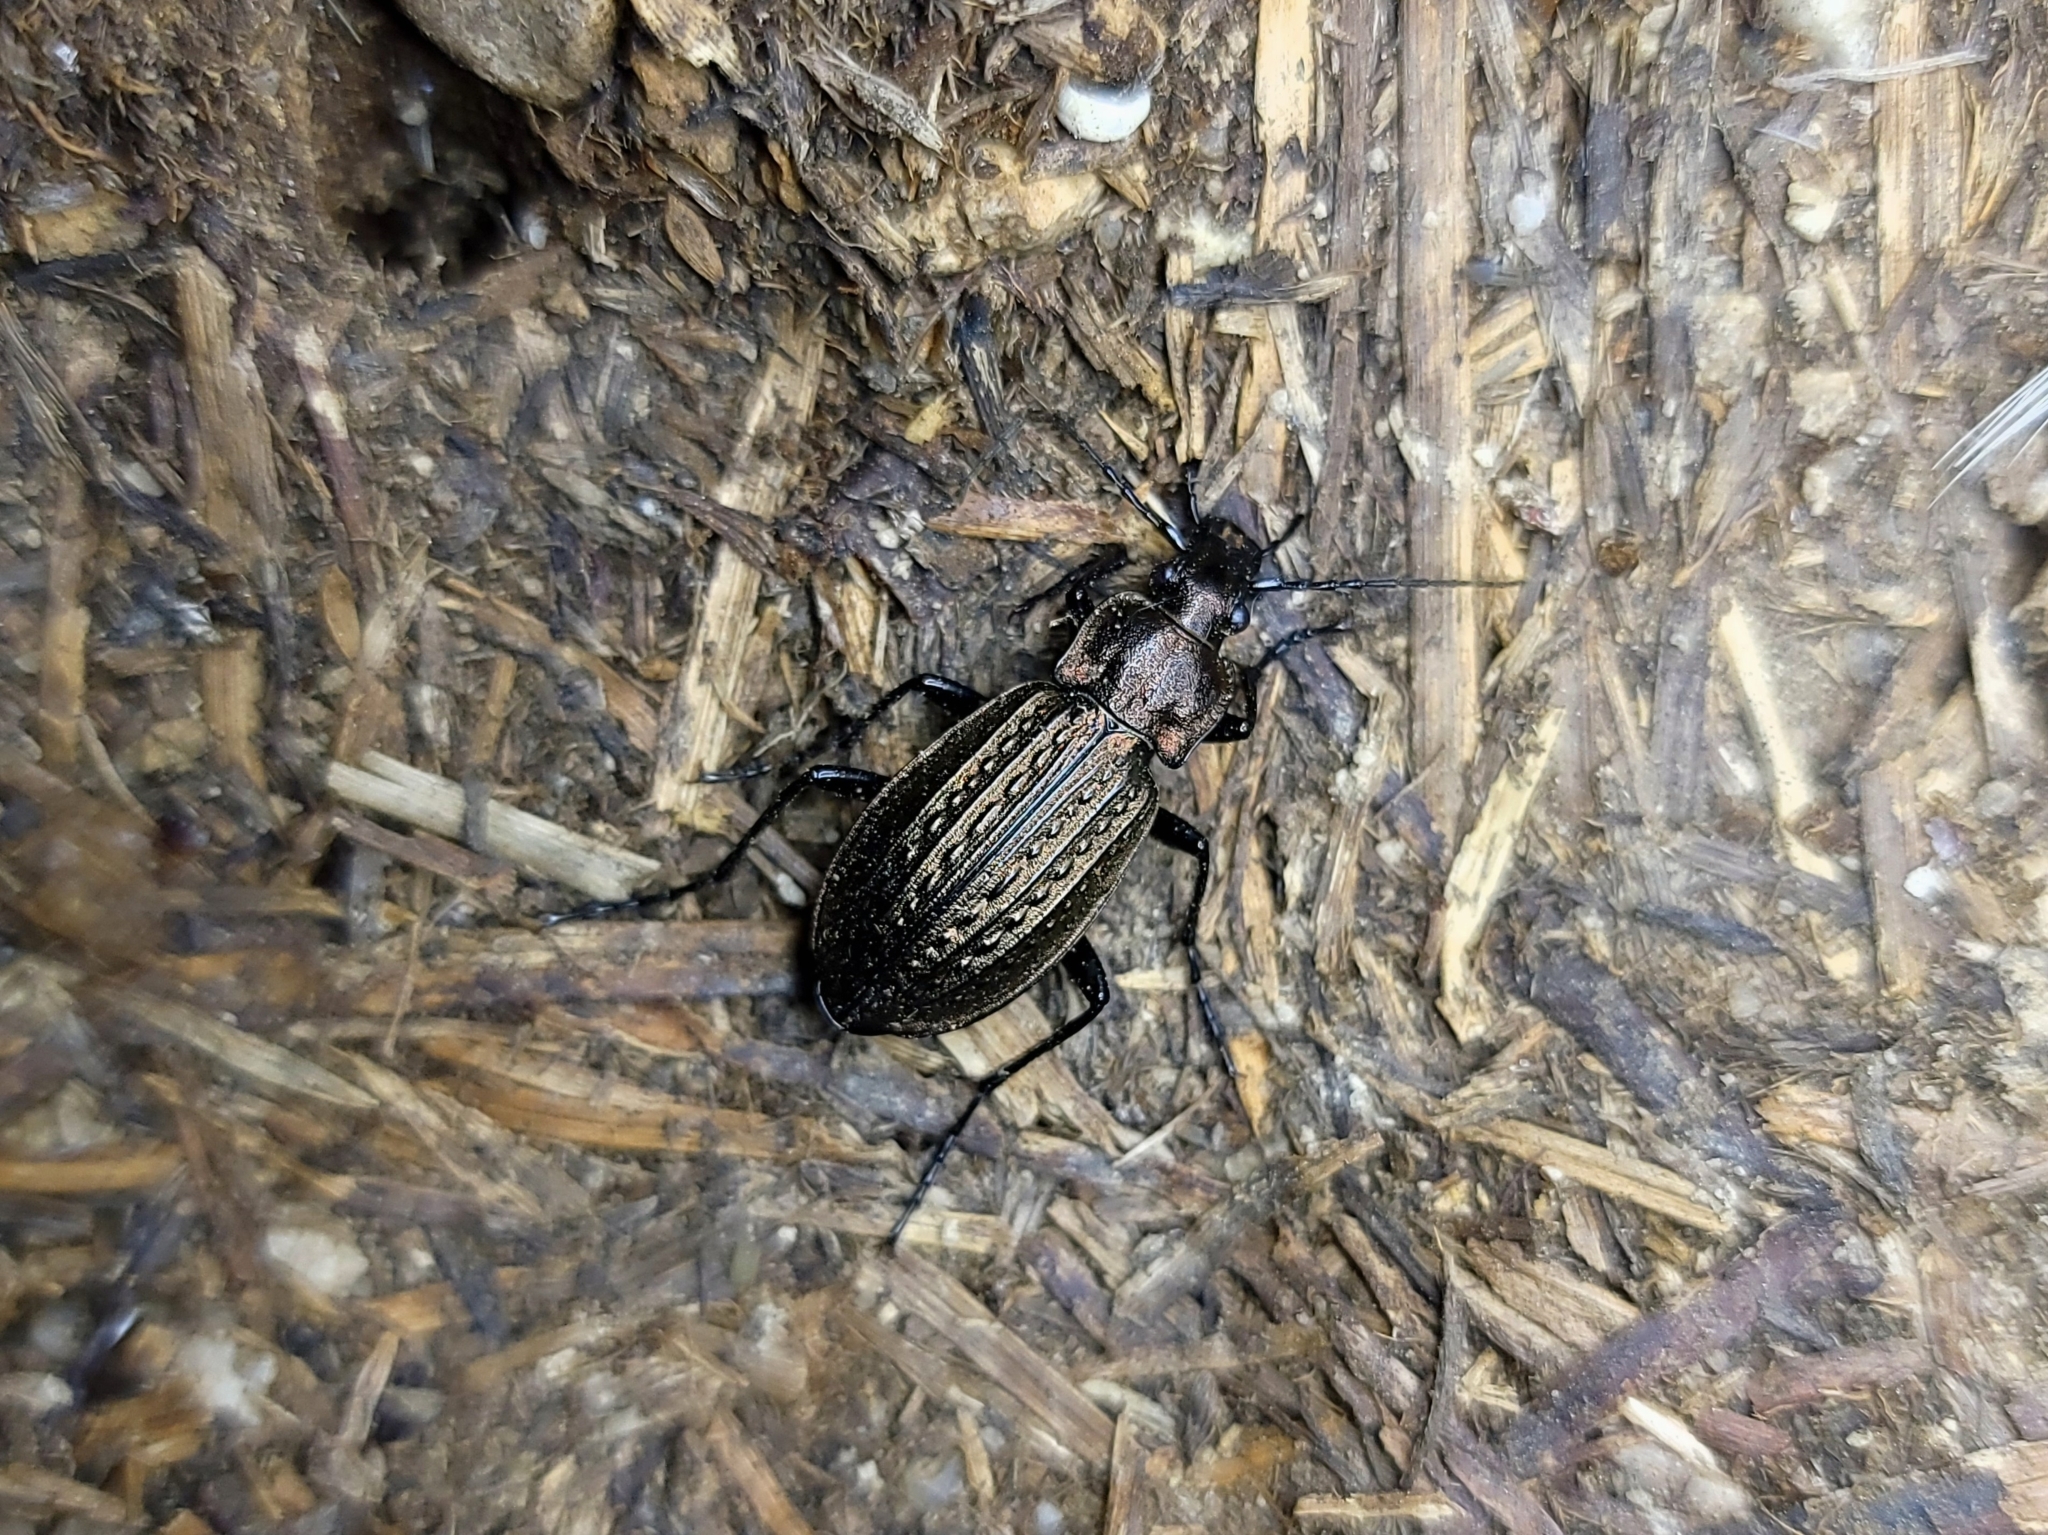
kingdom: Animalia
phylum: Arthropoda
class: Insecta
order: Coleoptera
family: Carabidae
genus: Carabus
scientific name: Carabus granulatus
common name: Granulate ground beetle
